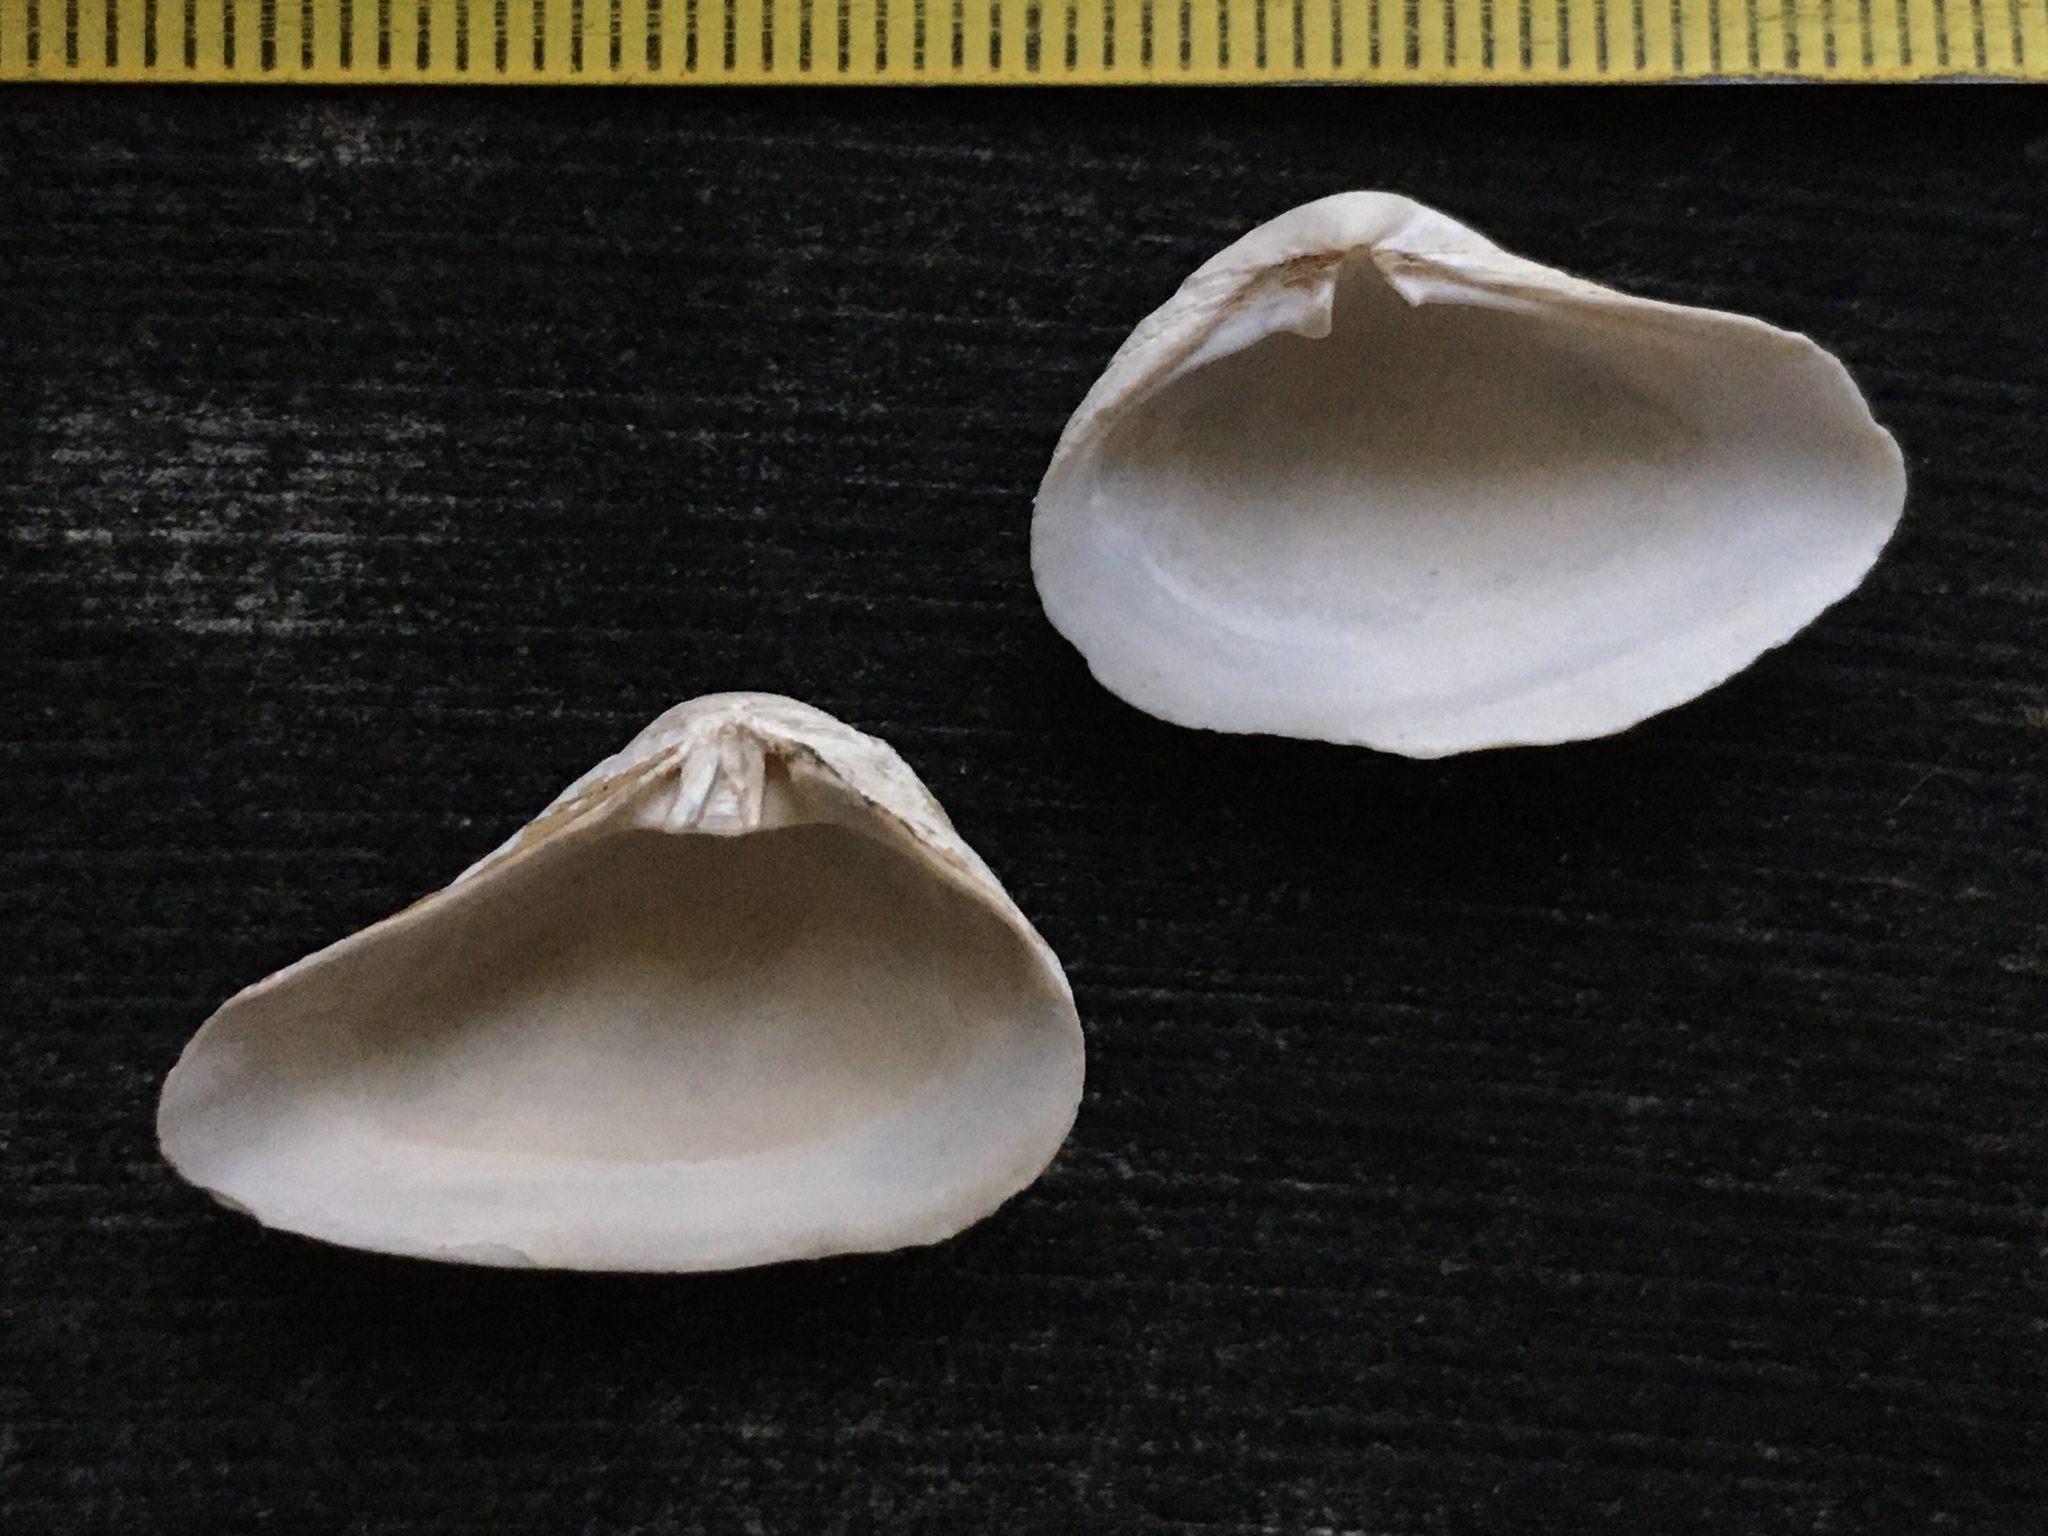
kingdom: Animalia
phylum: Mollusca
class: Bivalvia
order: Myida
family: Corbulidae
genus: Erodona
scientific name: Erodona mactroides
